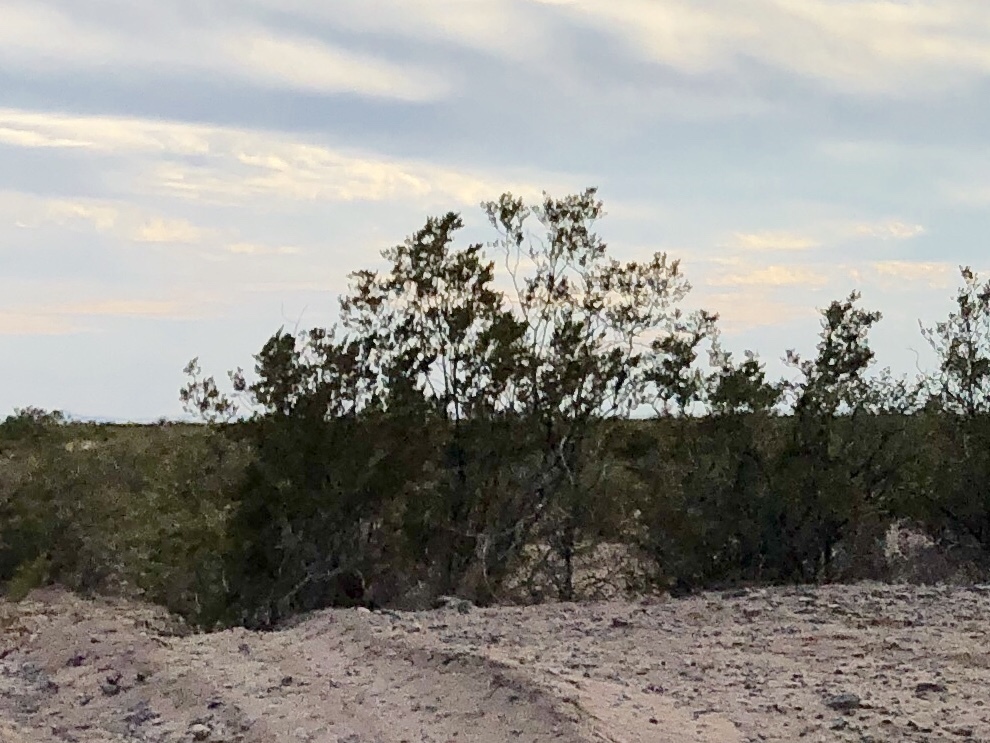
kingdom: Plantae
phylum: Tracheophyta
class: Magnoliopsida
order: Zygophyllales
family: Zygophyllaceae
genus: Larrea
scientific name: Larrea tridentata
